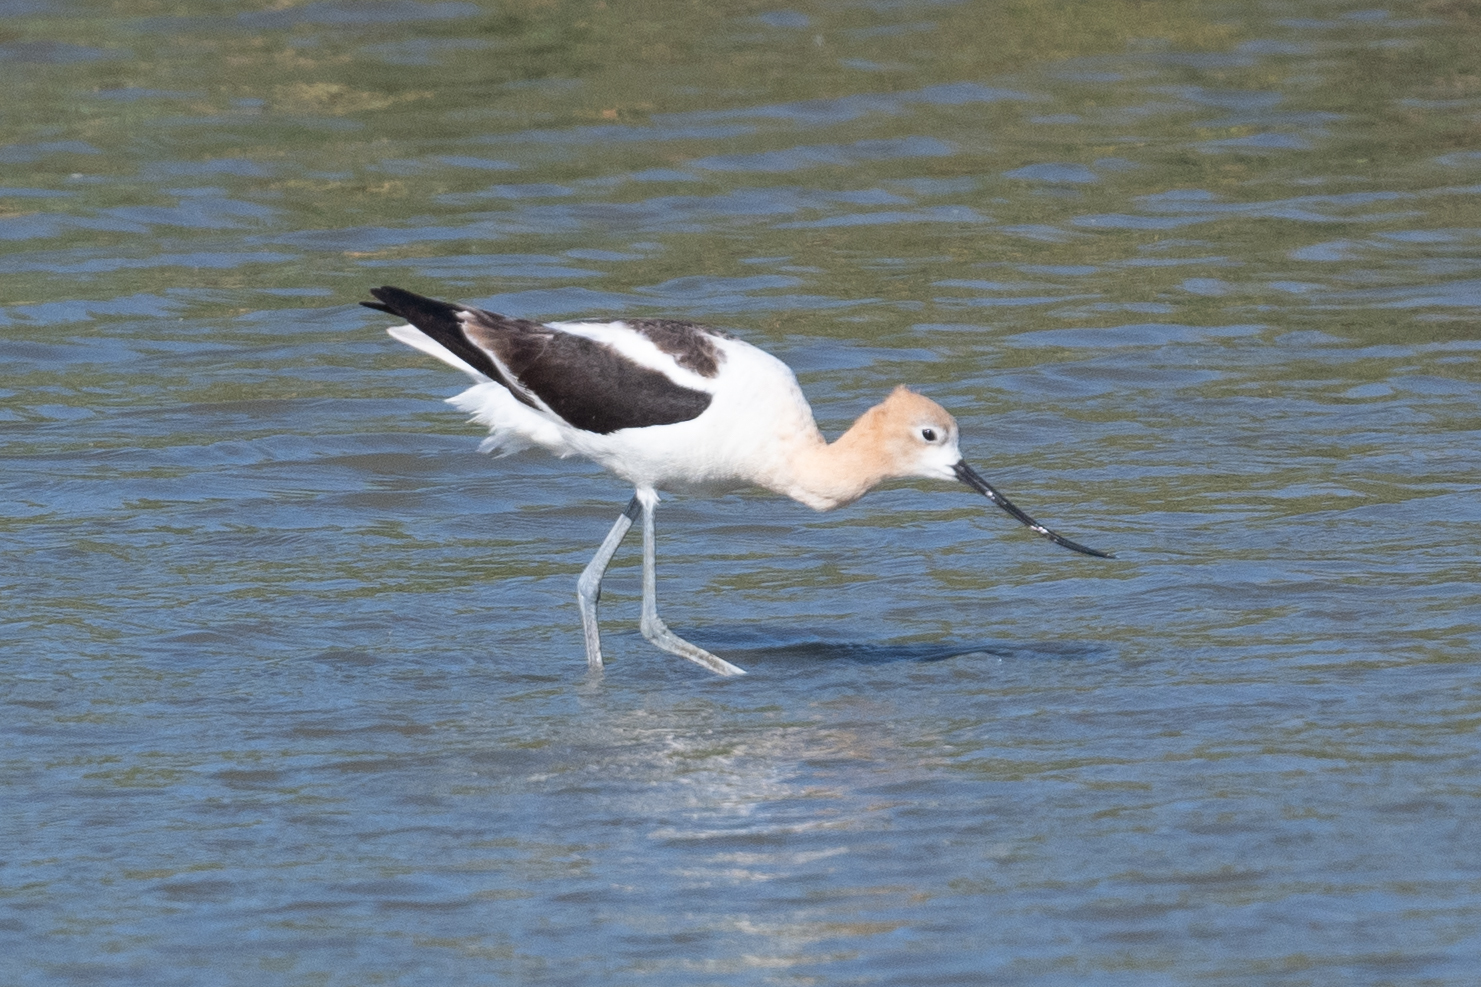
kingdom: Animalia
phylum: Chordata
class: Aves
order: Charadriiformes
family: Recurvirostridae
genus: Recurvirostra
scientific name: Recurvirostra americana
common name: American avocet
